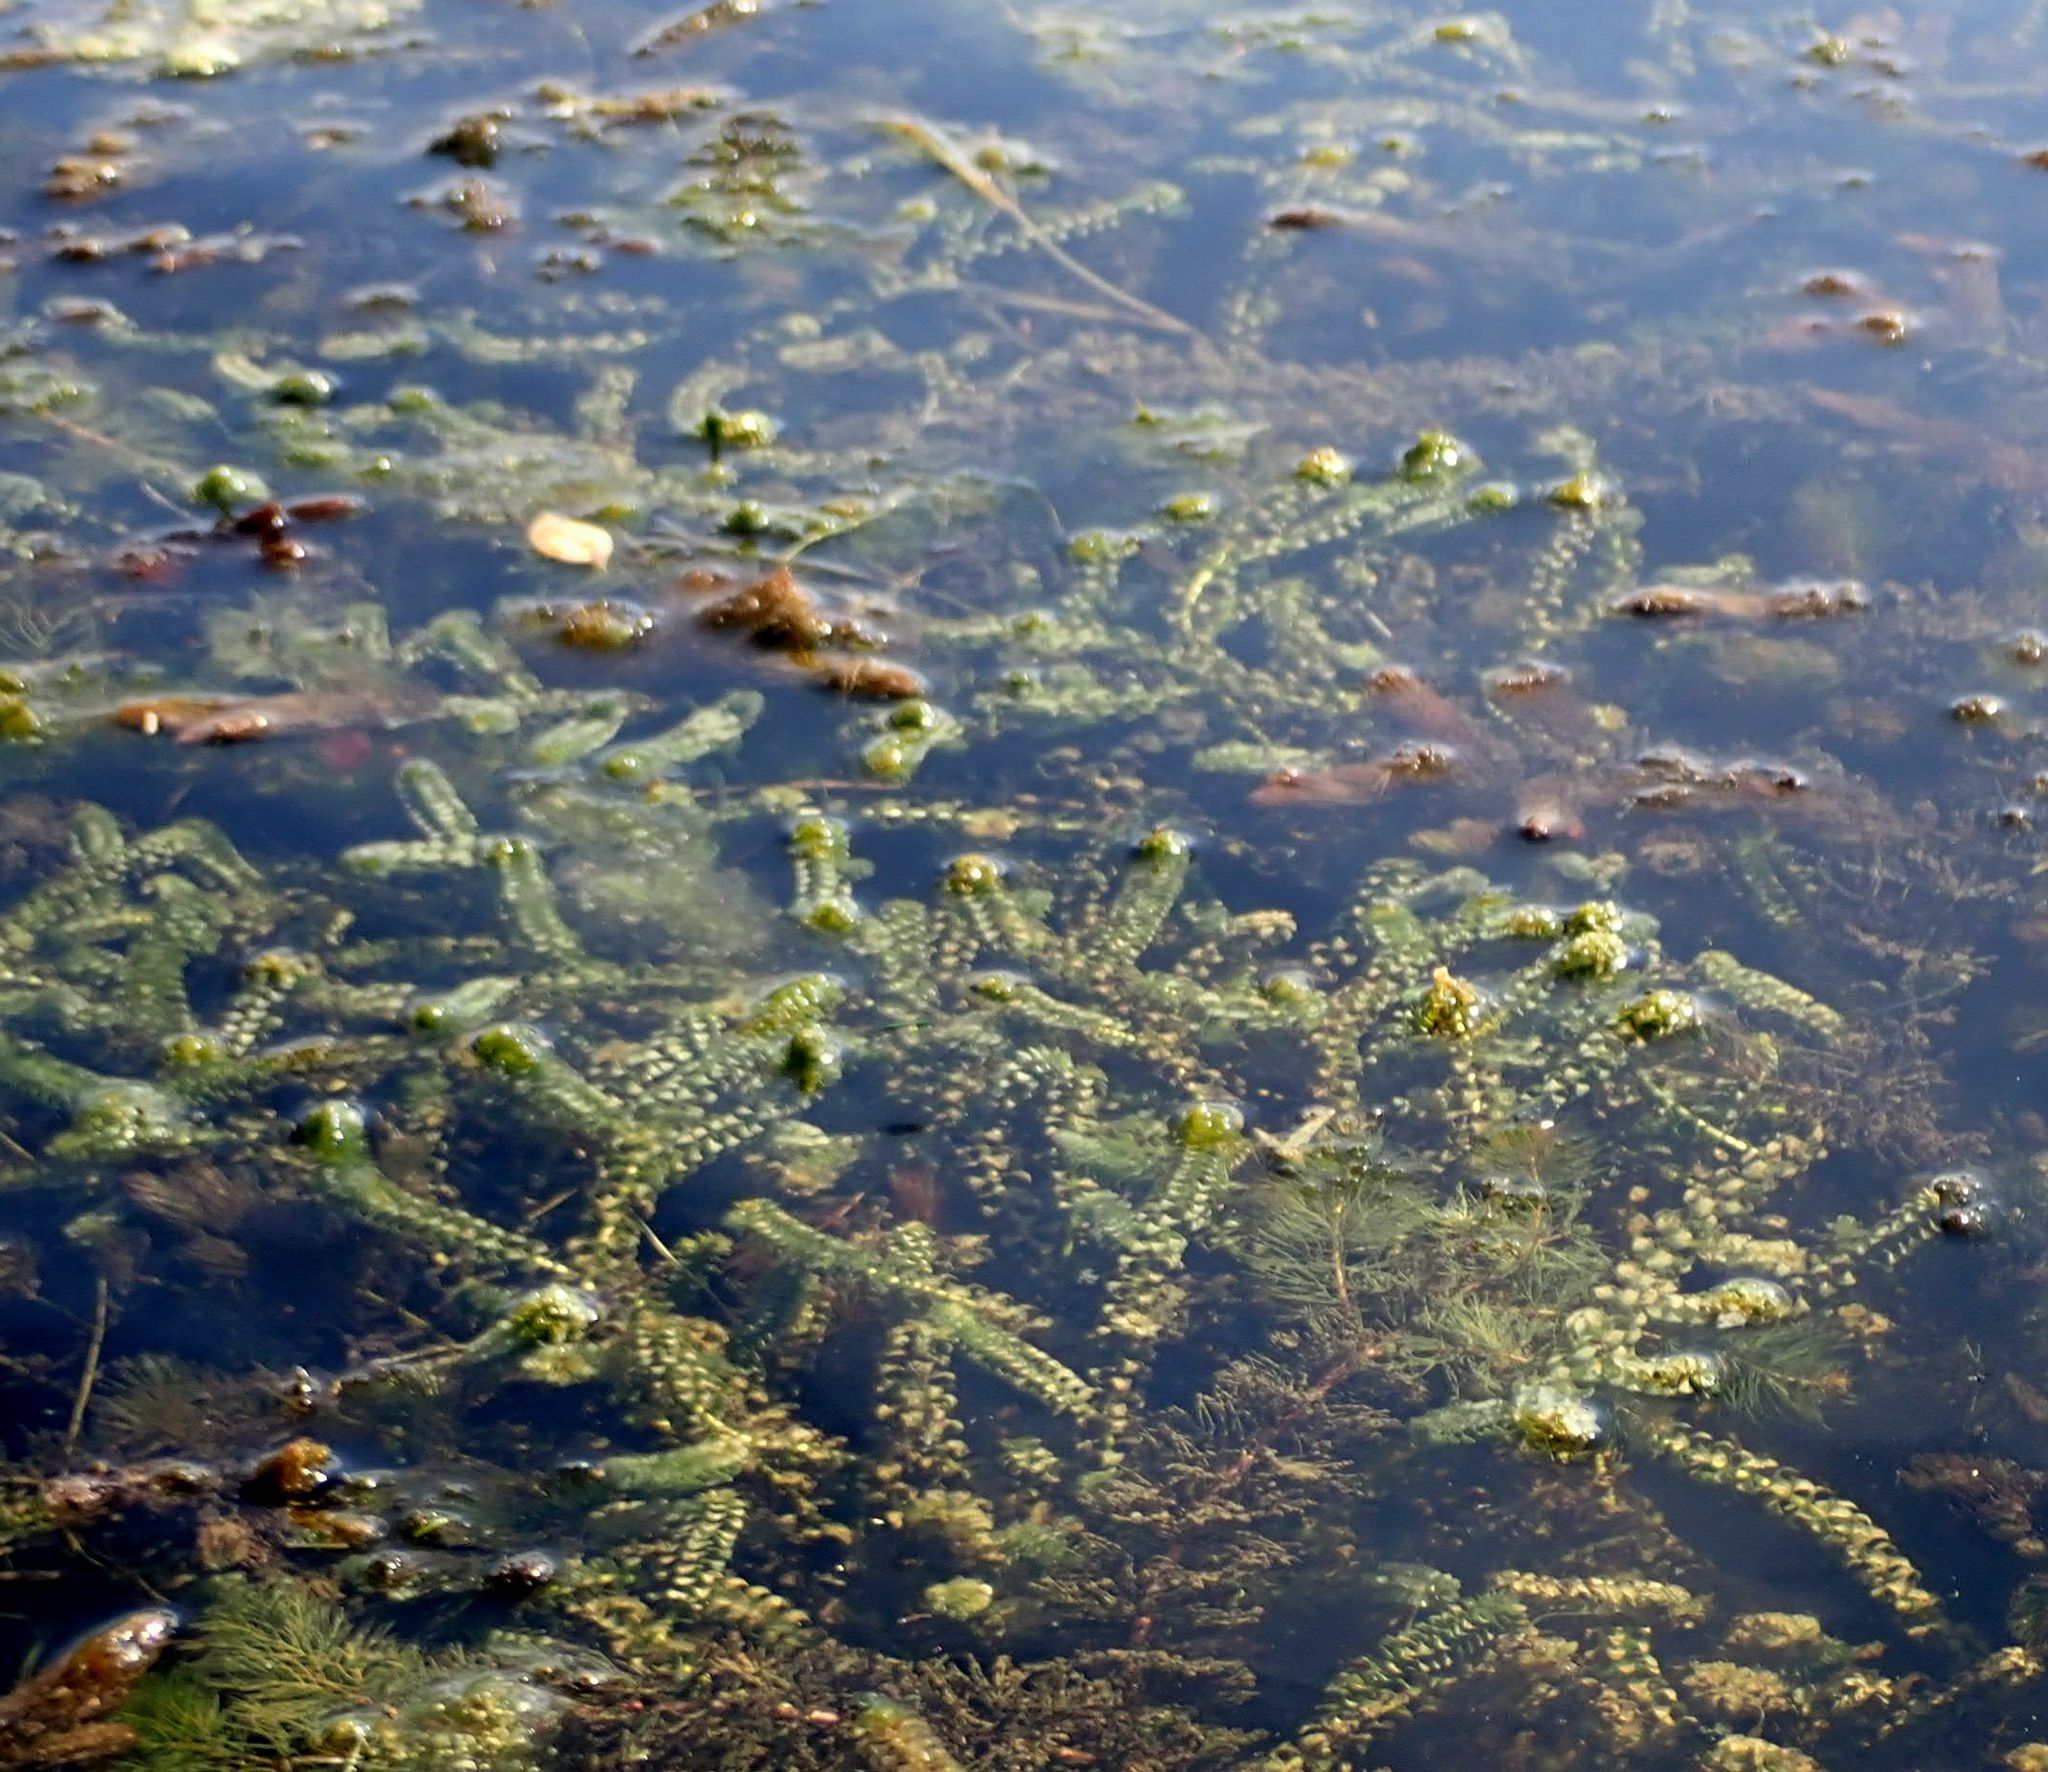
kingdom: Plantae
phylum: Tracheophyta
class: Liliopsida
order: Alismatales
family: Hydrocharitaceae
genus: Elodea
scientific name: Elodea canadensis
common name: Canadian waterweed
